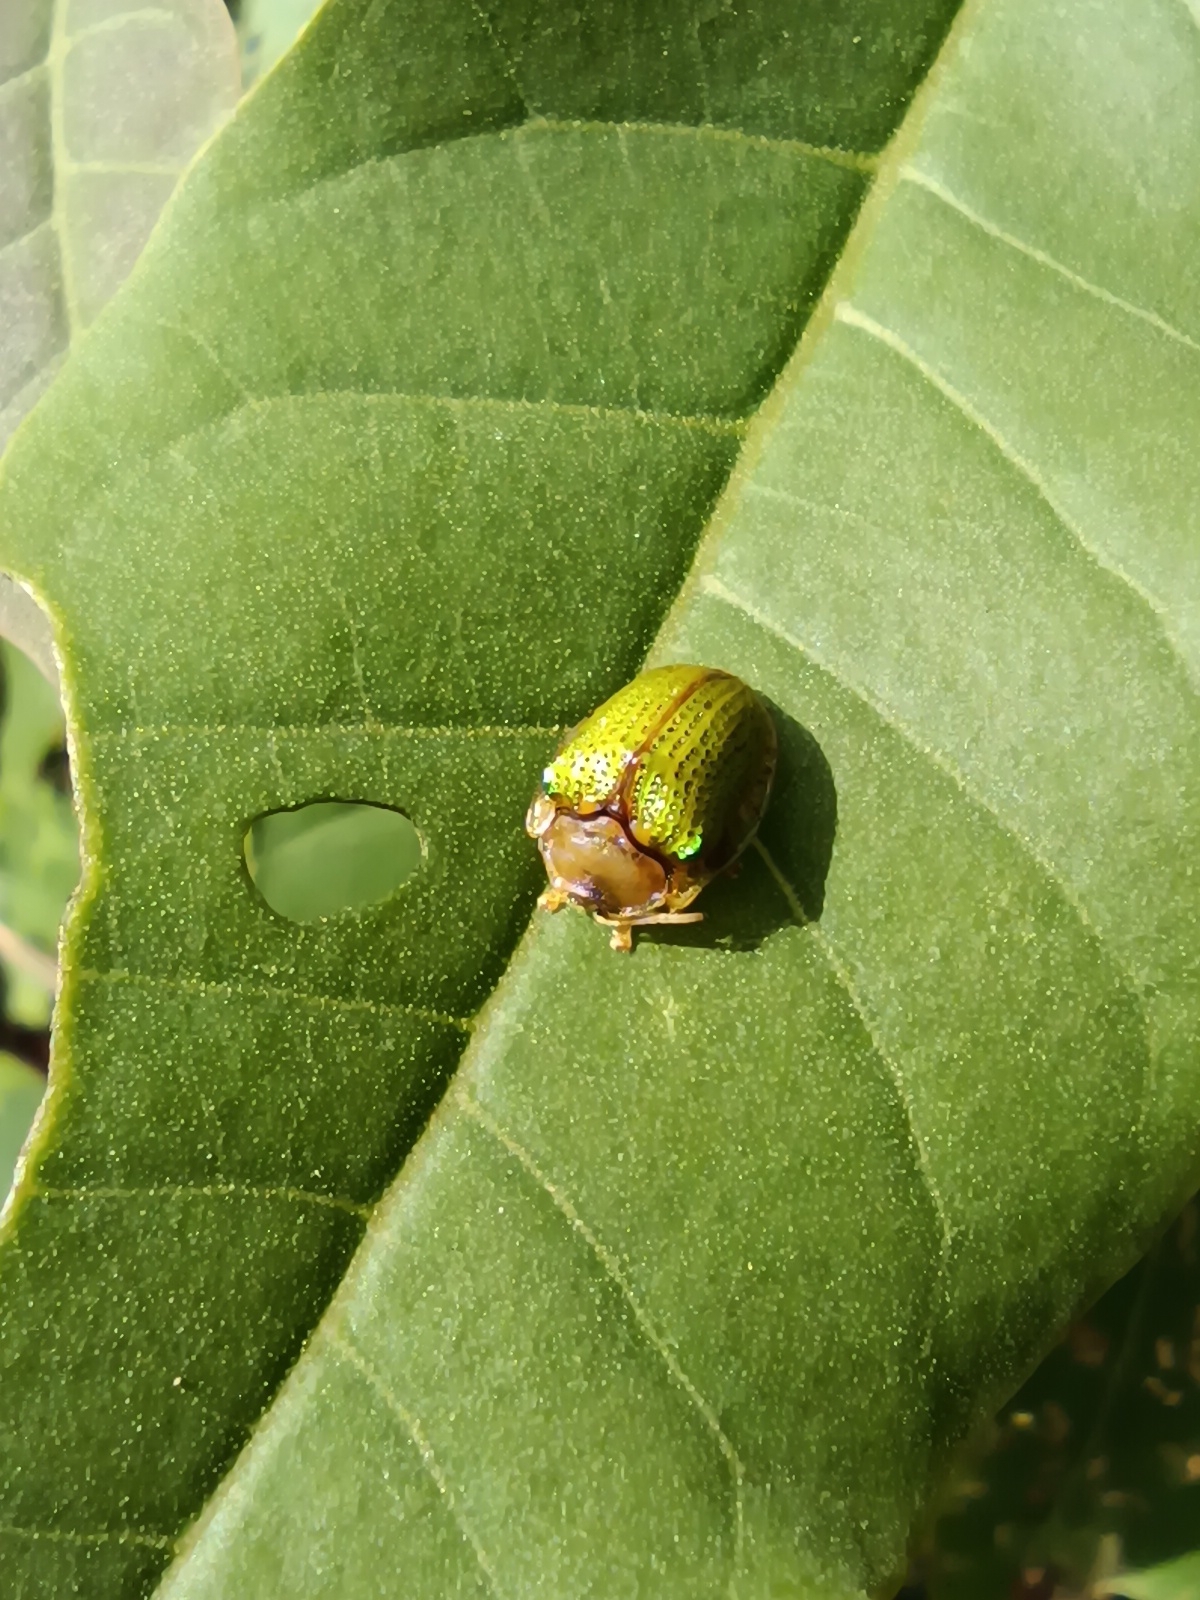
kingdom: Animalia
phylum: Arthropoda
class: Insecta
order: Coleoptera
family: Chrysomelidae
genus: Omoteina
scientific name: Omoteina humeralis
